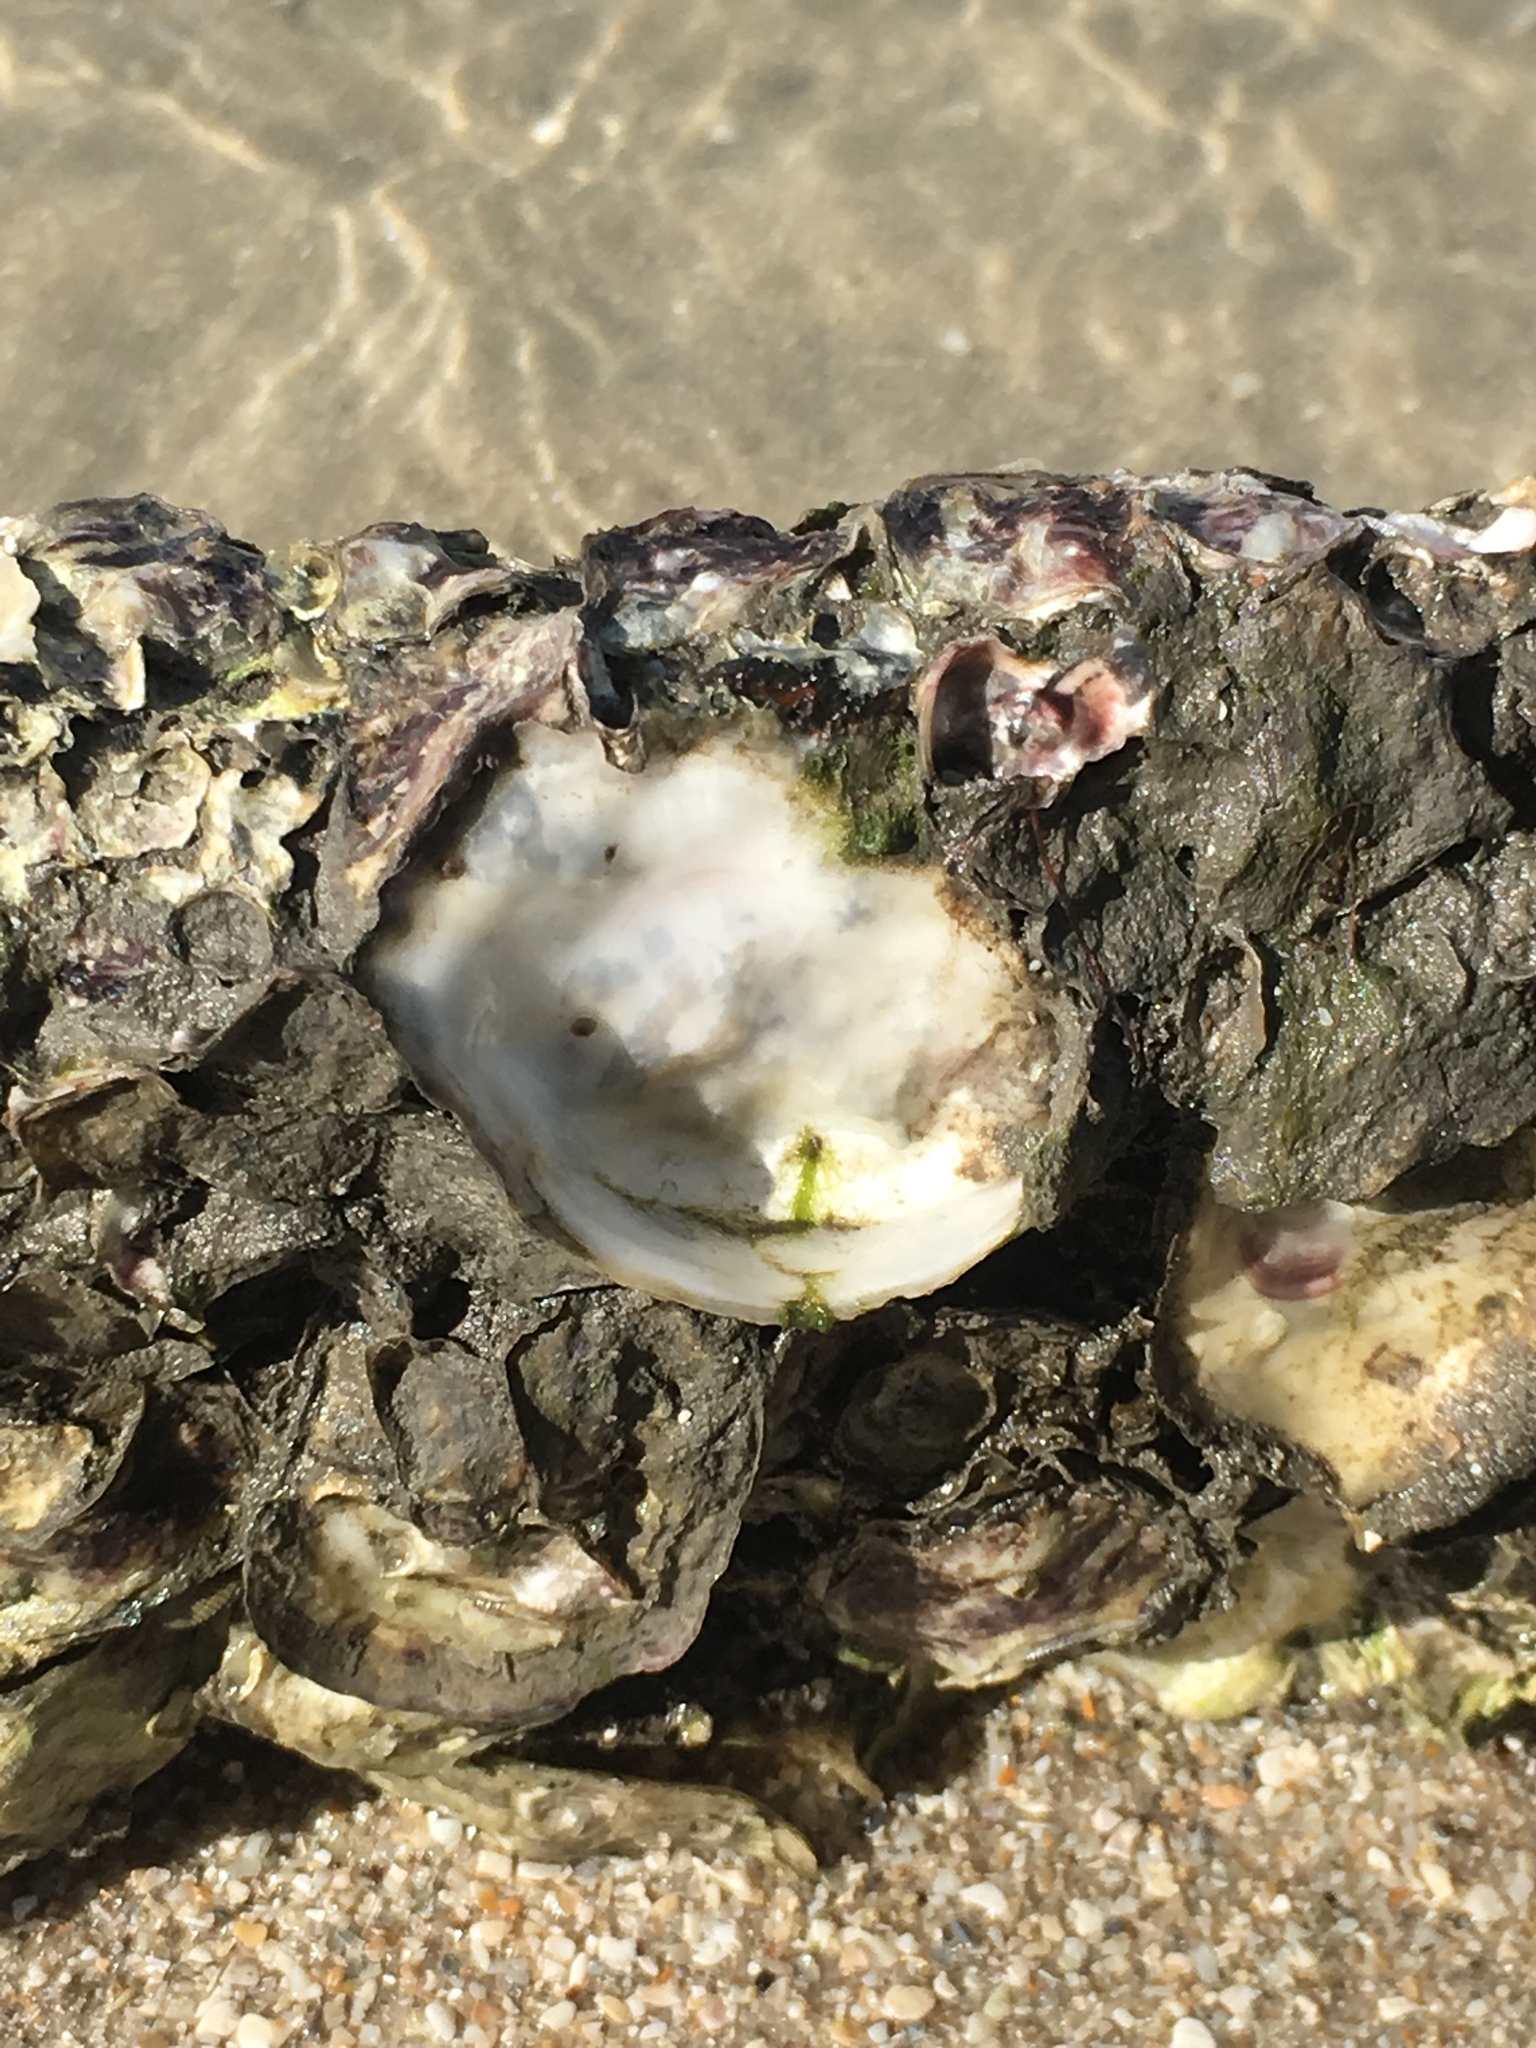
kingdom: Animalia
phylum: Mollusca
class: Bivalvia
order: Ostreida
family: Ostreidae
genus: Crassostrea
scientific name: Crassostrea virginica
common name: American oyster
